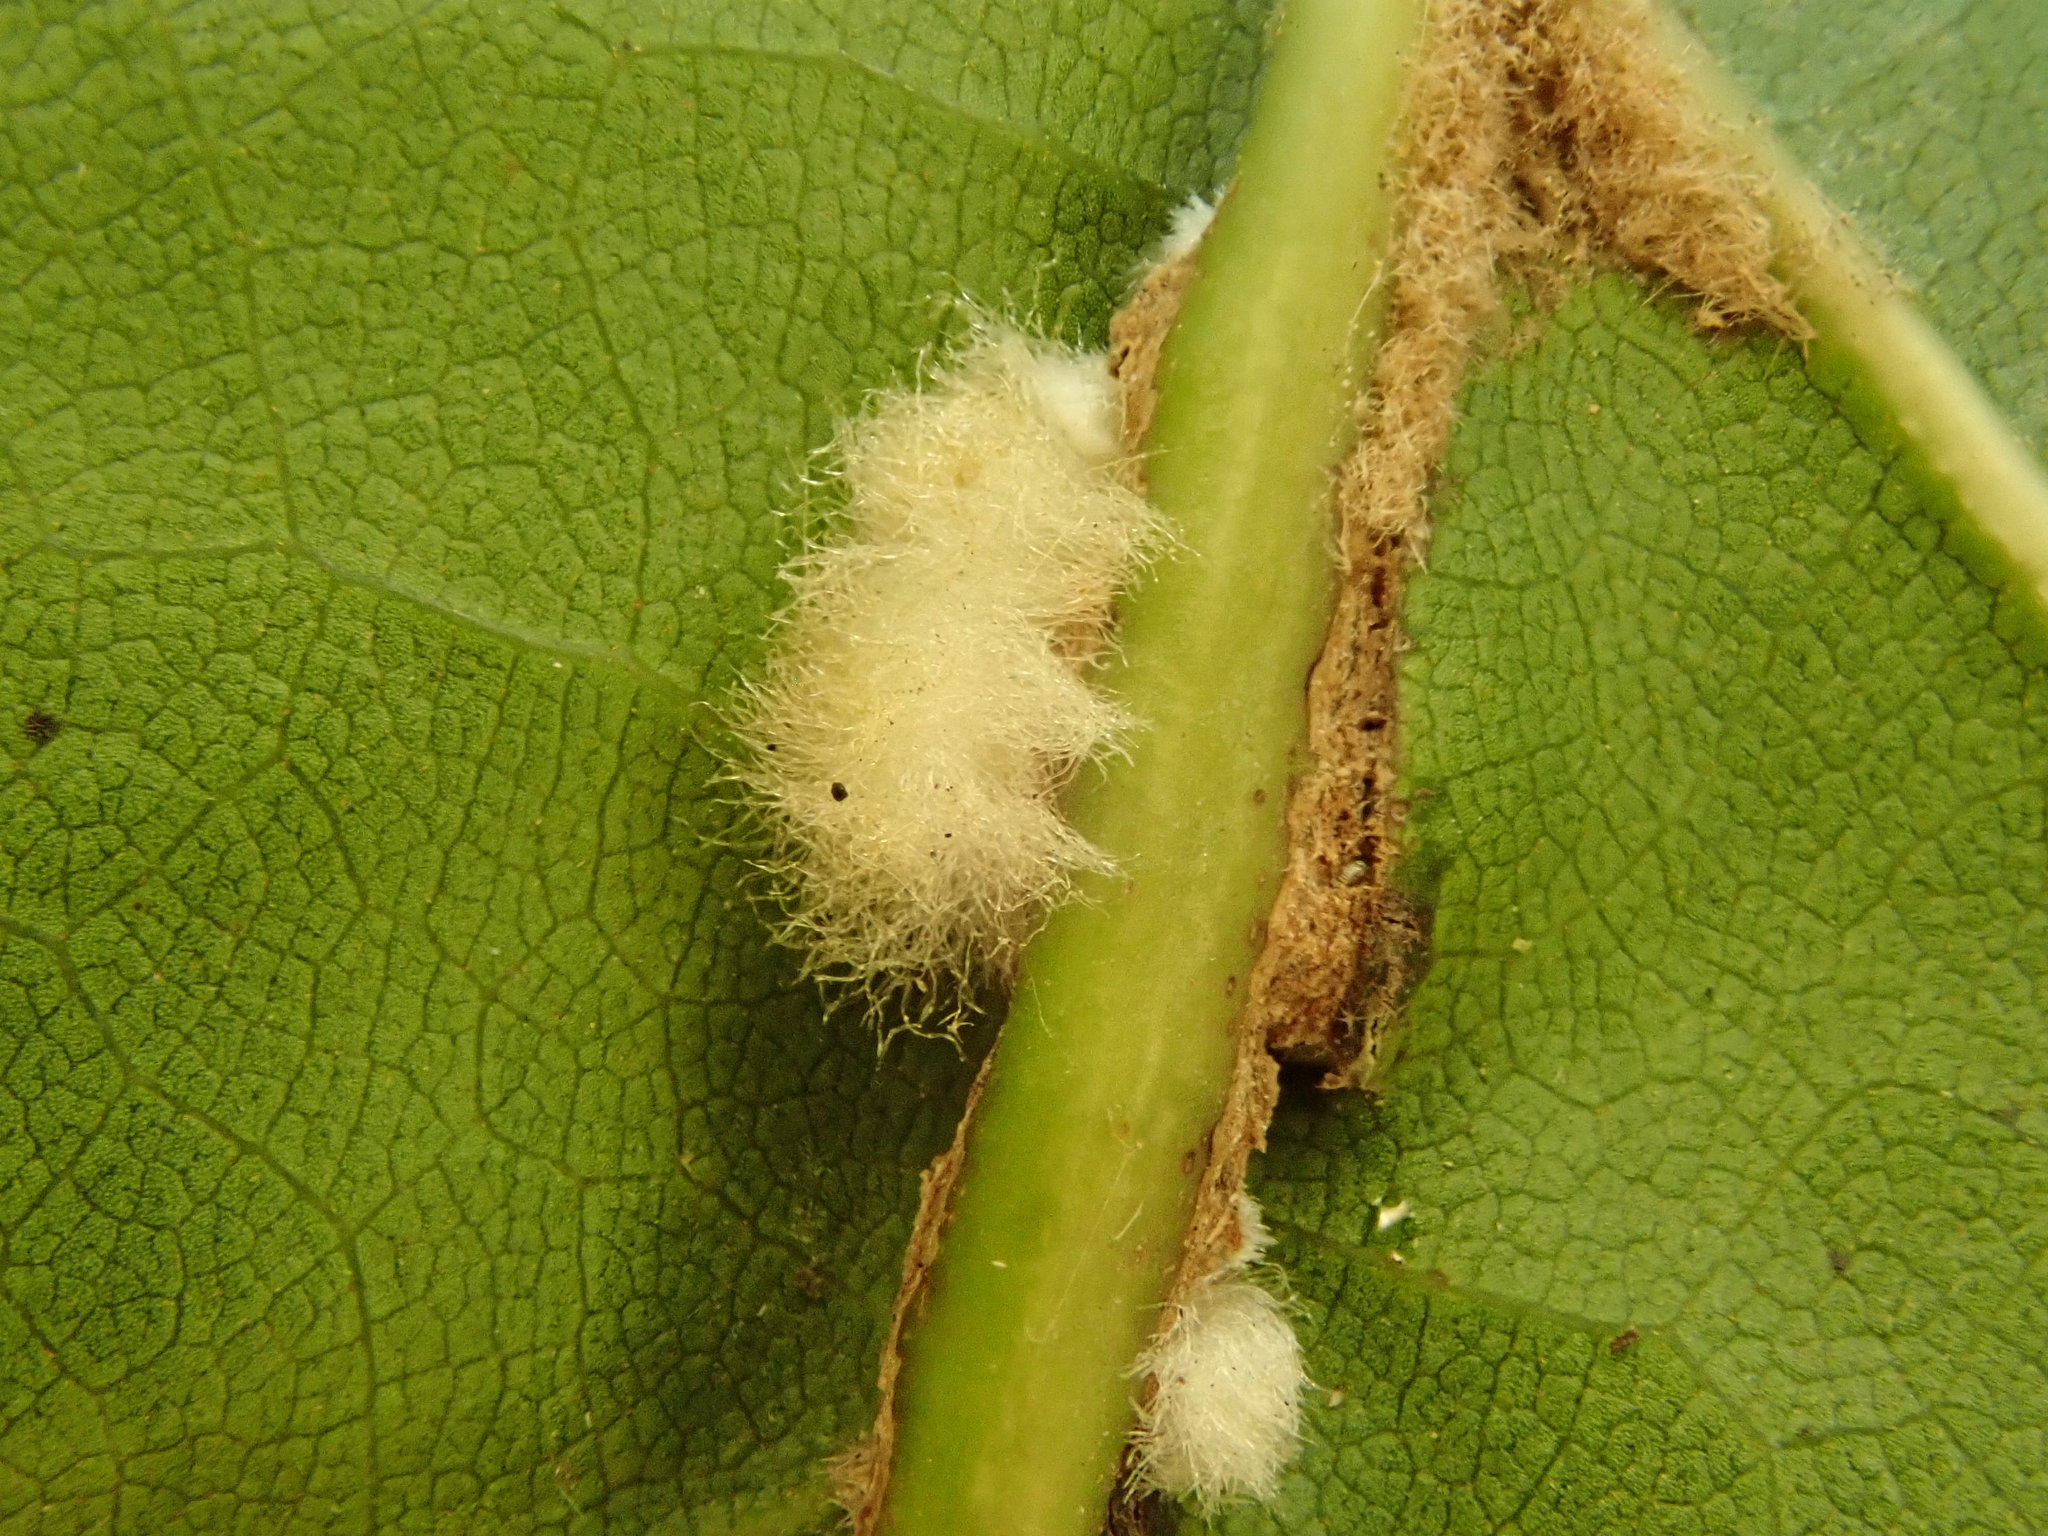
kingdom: Animalia
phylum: Arthropoda
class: Insecta
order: Hymenoptera
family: Cynipidae
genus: Callirhytis
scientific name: Callirhytis
